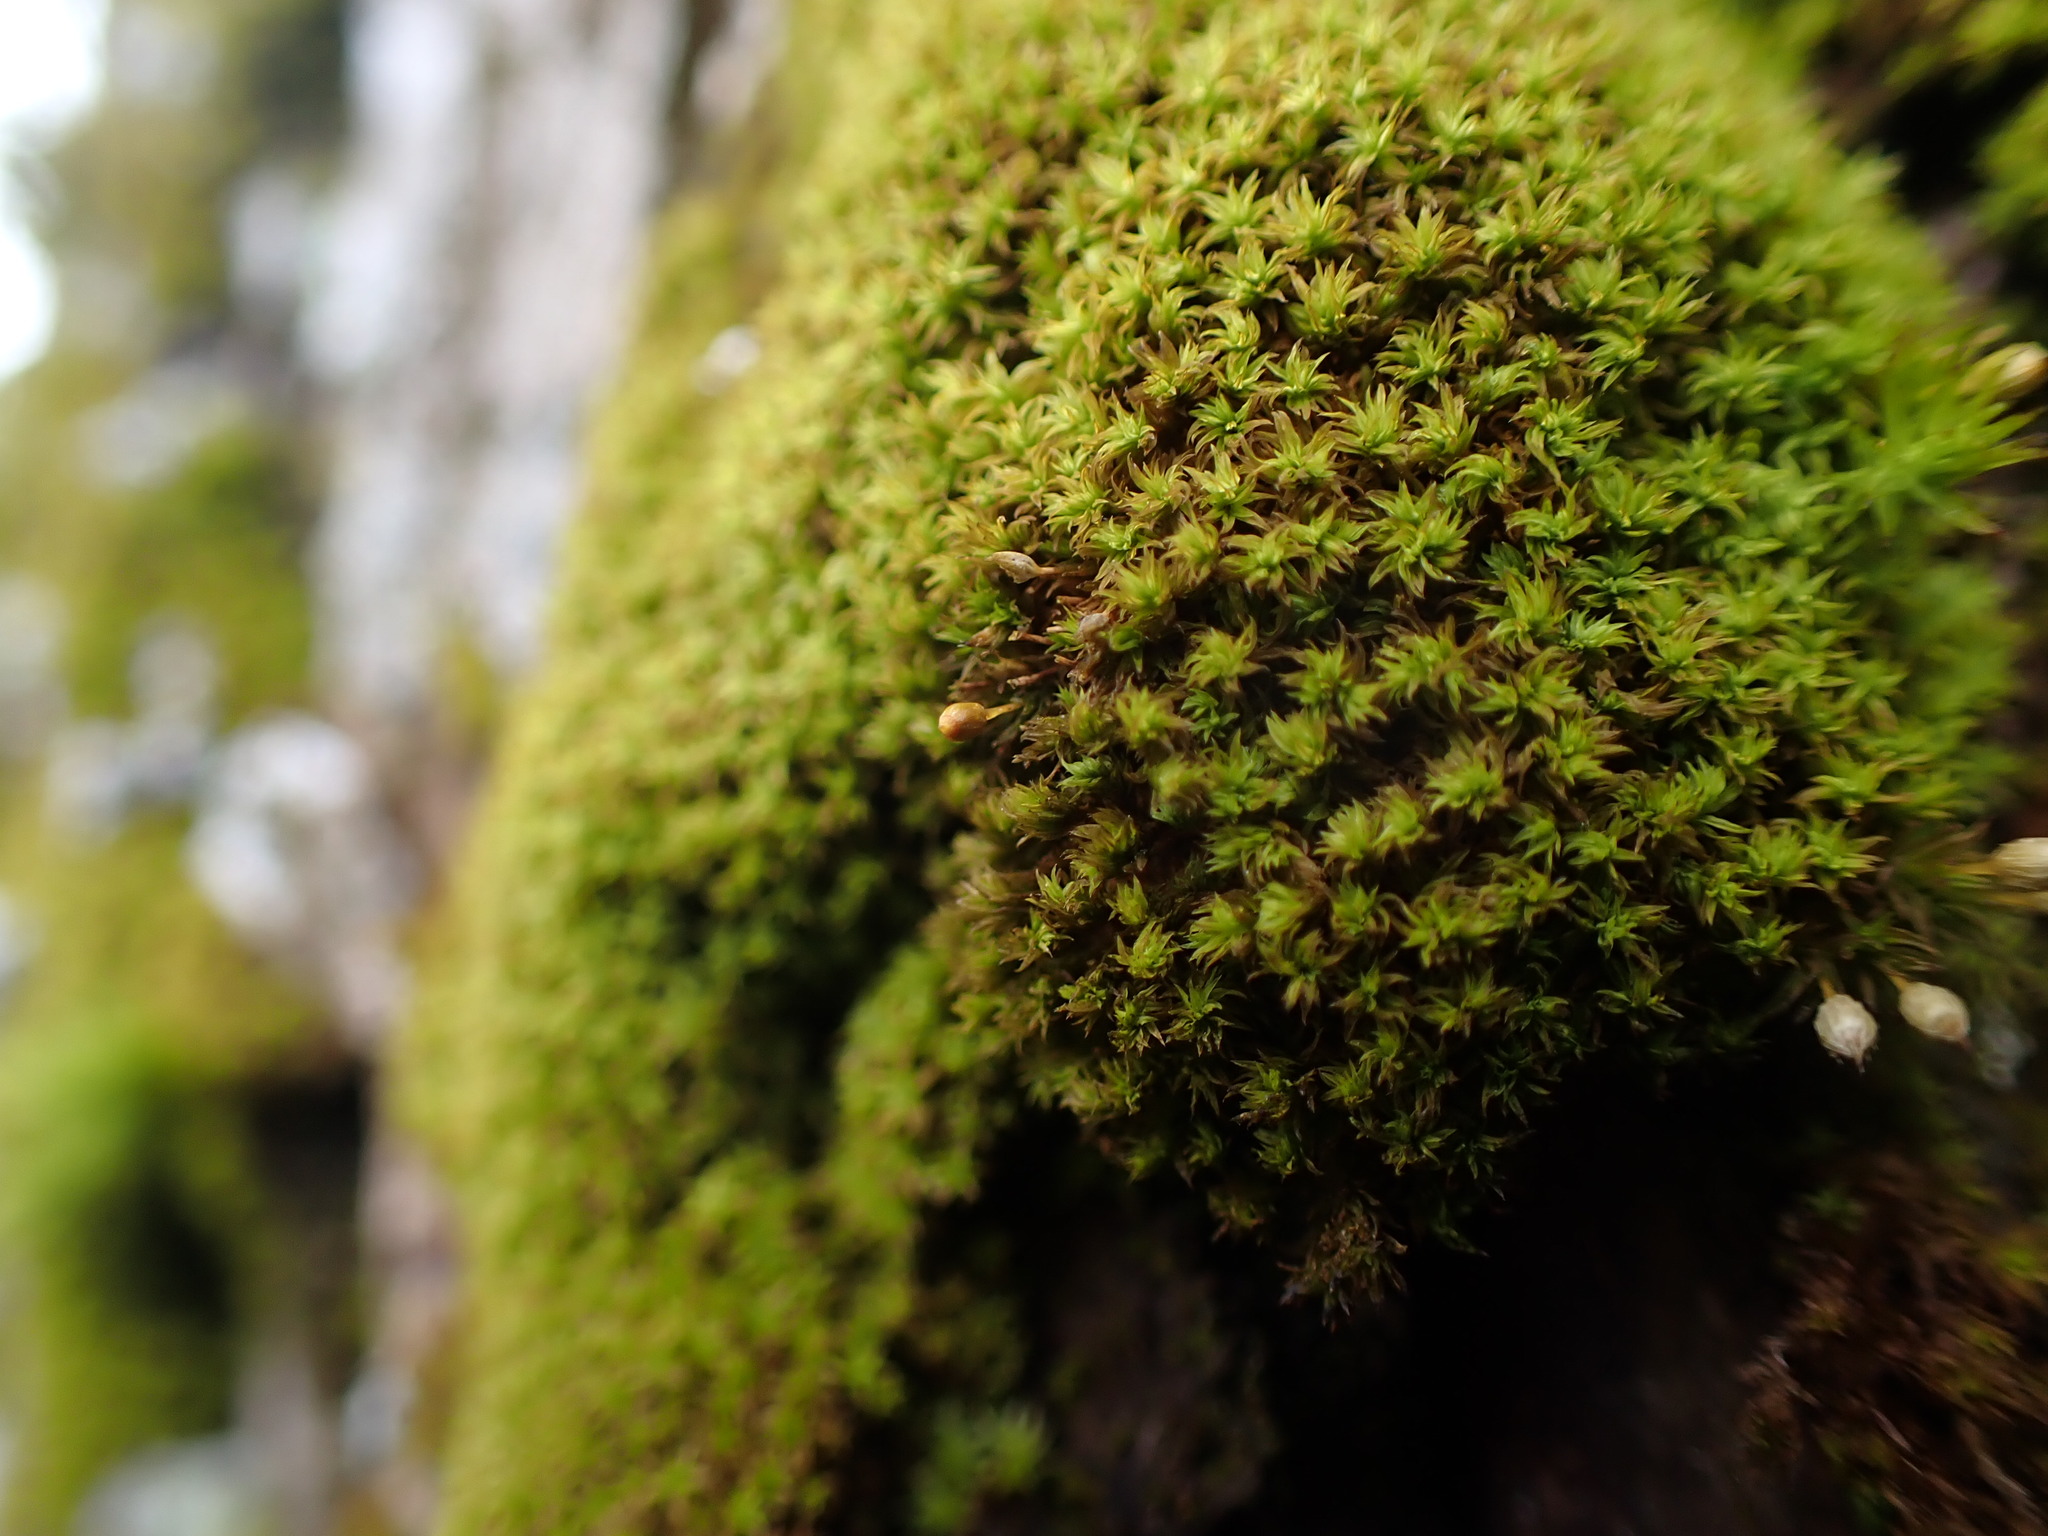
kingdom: Plantae
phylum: Bryophyta
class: Bryopsida
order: Orthotrichales
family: Orthotrichaceae
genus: Zygodon
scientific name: Zygodon rupestris
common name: Park yoke moss
